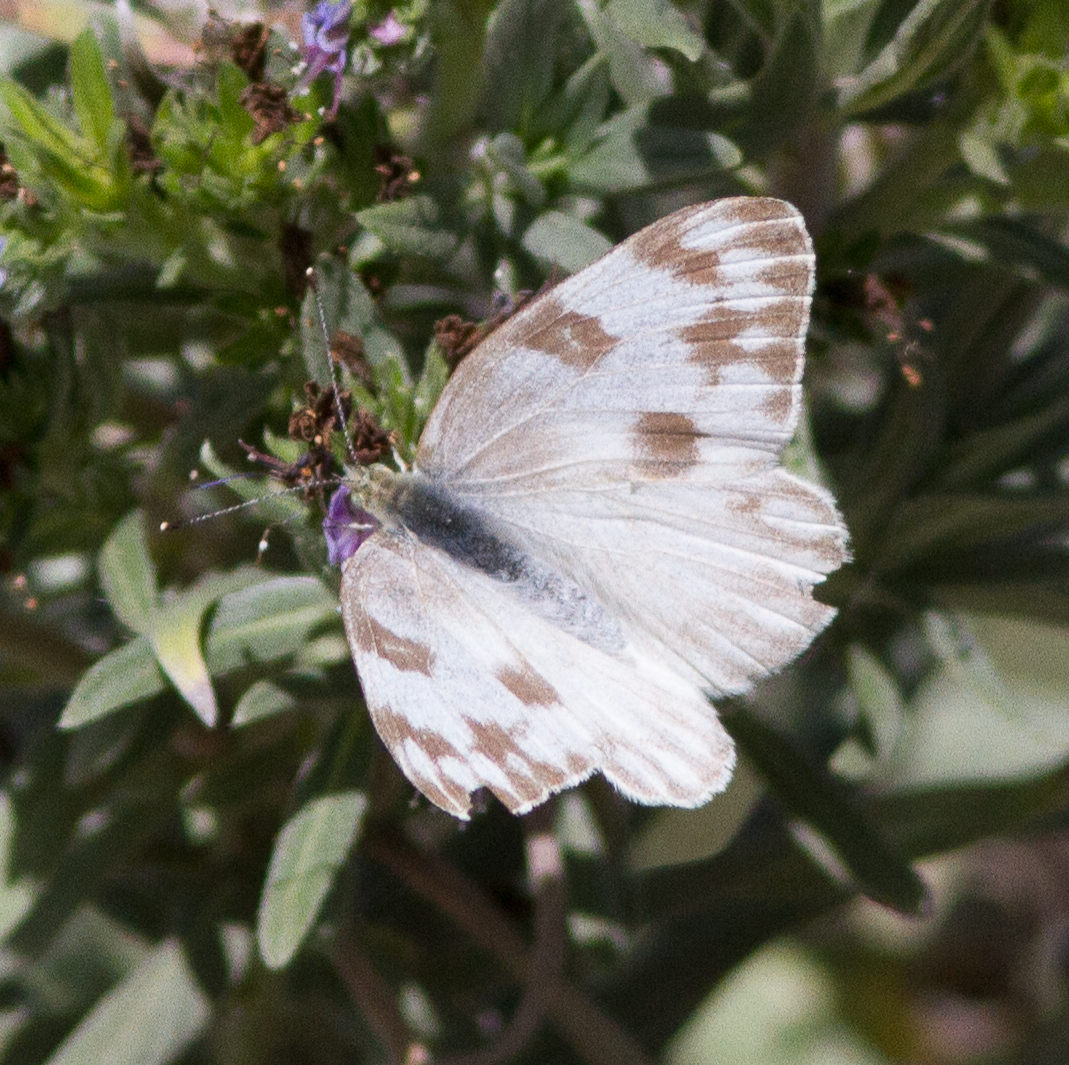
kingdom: Animalia
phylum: Arthropoda
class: Insecta
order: Lepidoptera
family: Pieridae
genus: Pontia
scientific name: Pontia protodice
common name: Checkered white
